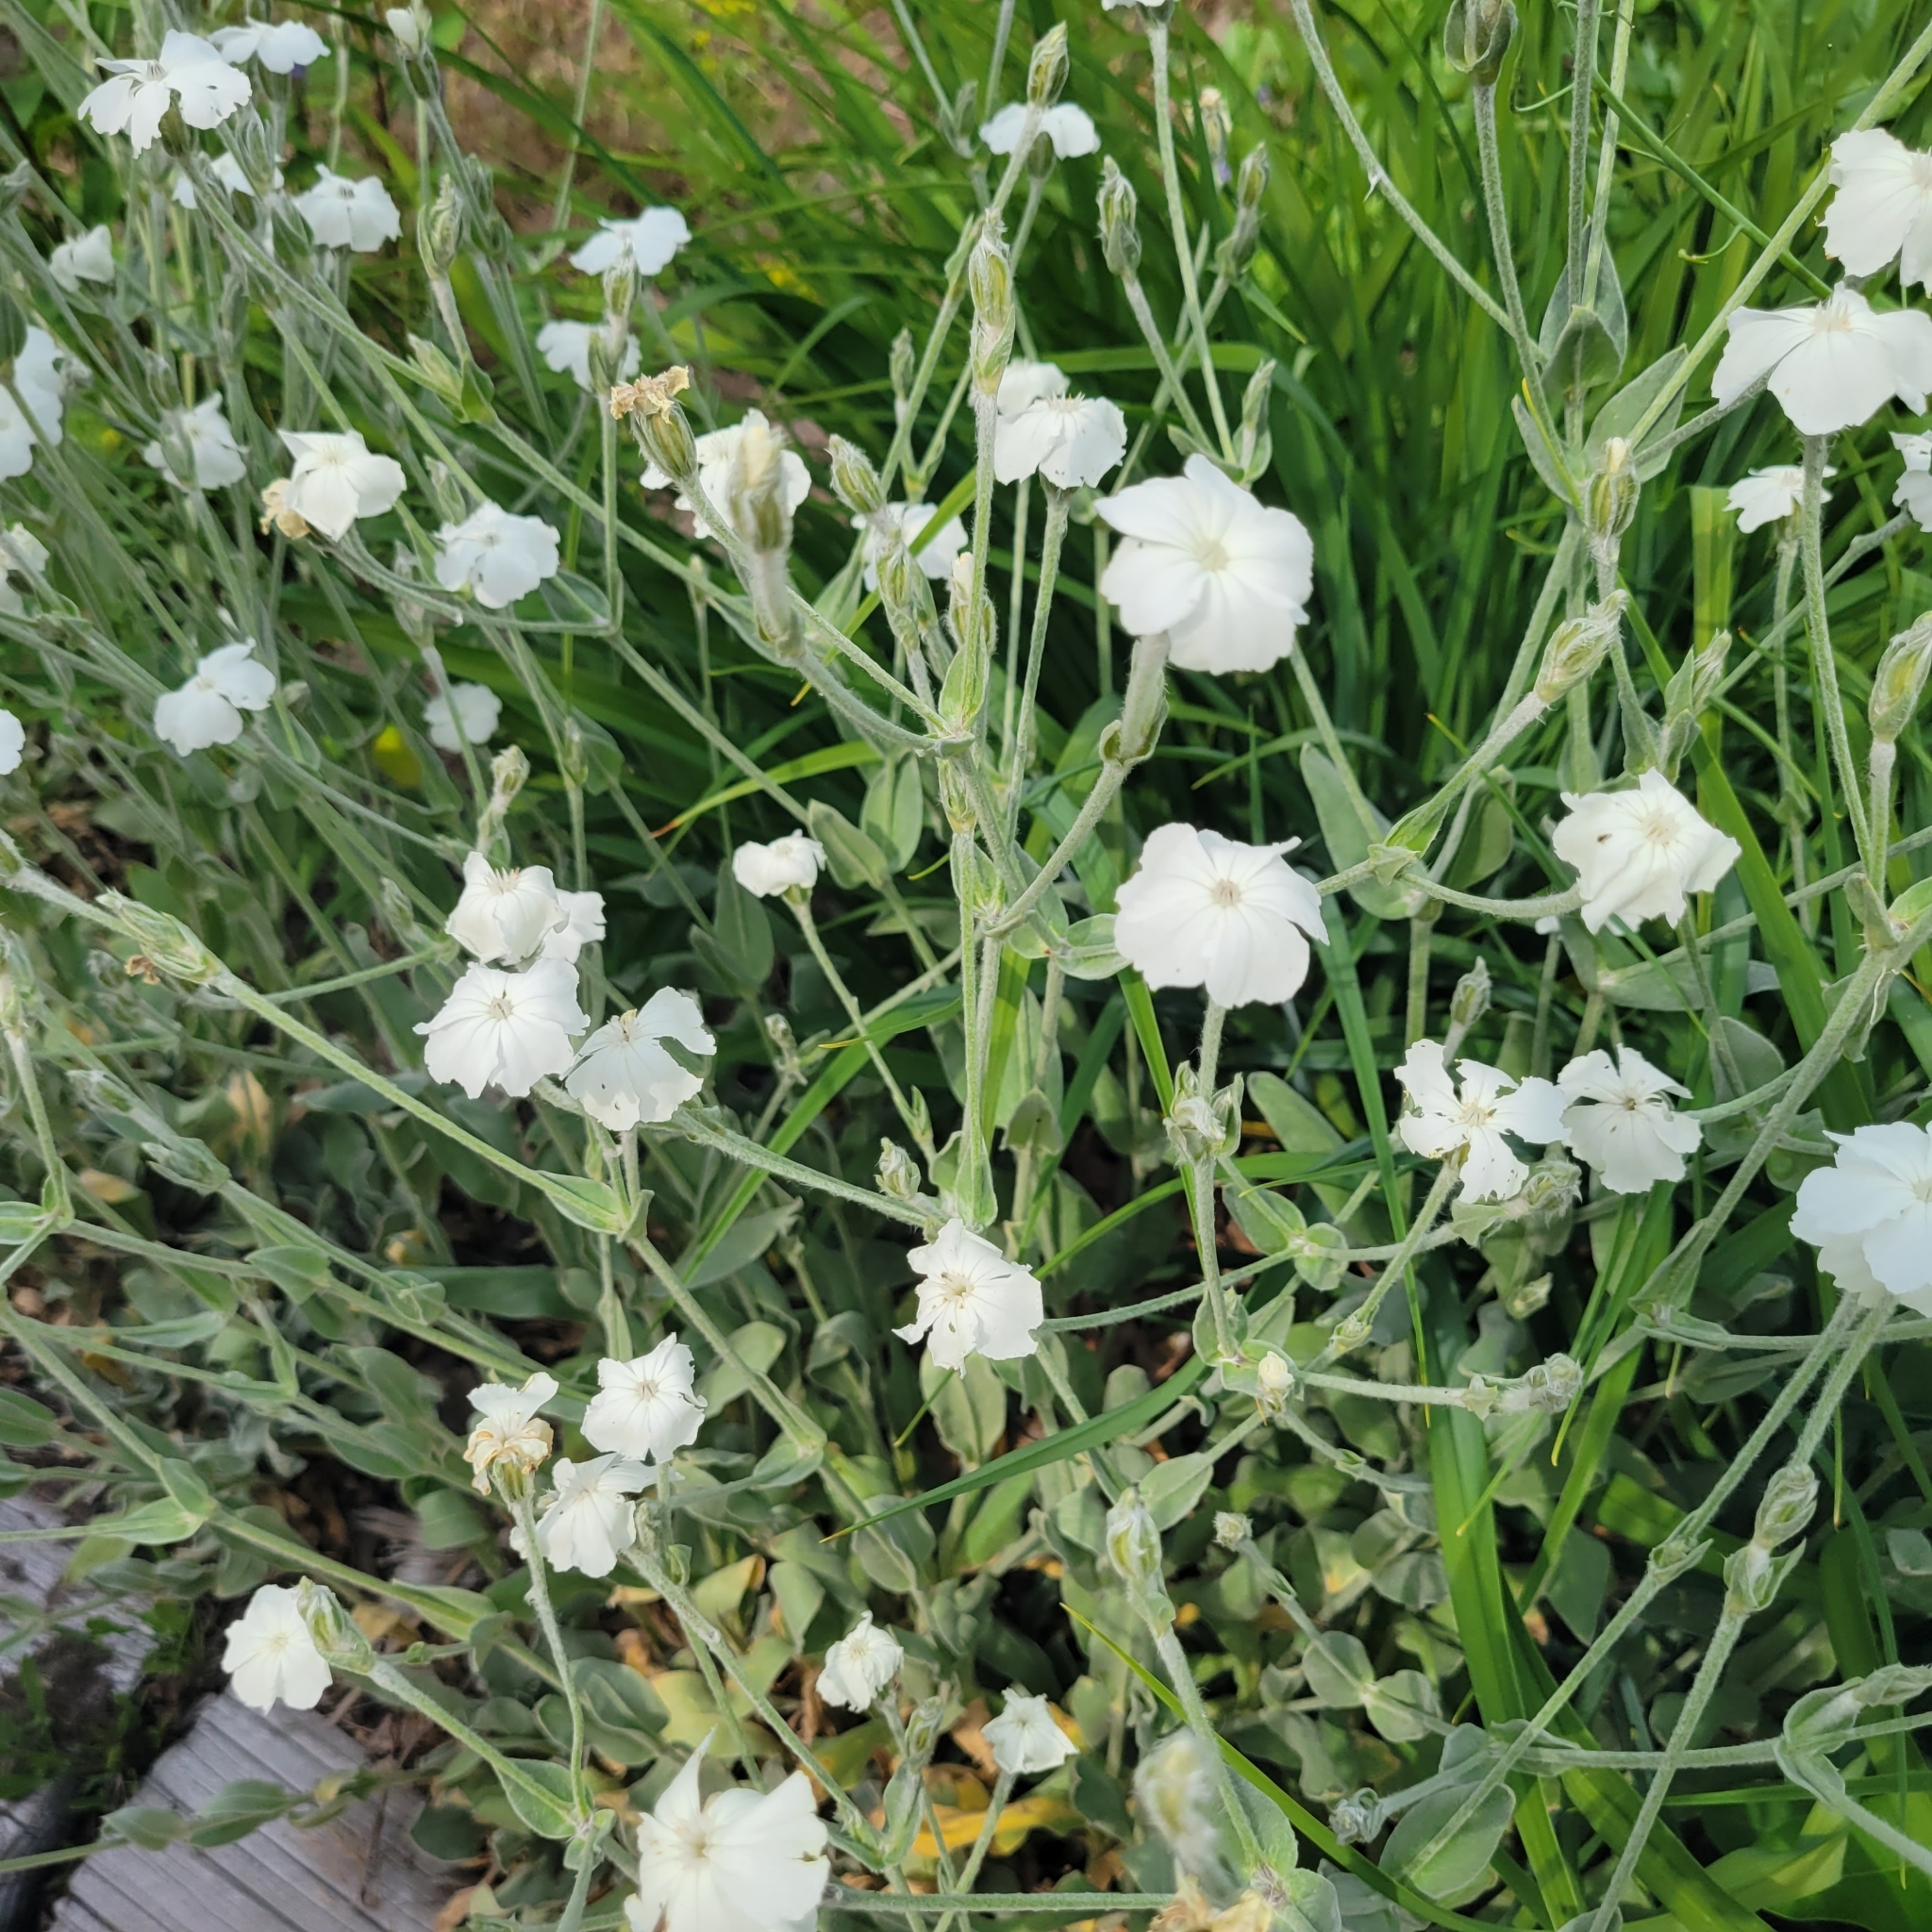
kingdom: Plantae
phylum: Tracheophyta
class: Magnoliopsida
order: Caryophyllales
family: Caryophyllaceae
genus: Silene
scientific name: Silene coronaria
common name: Rose campion
